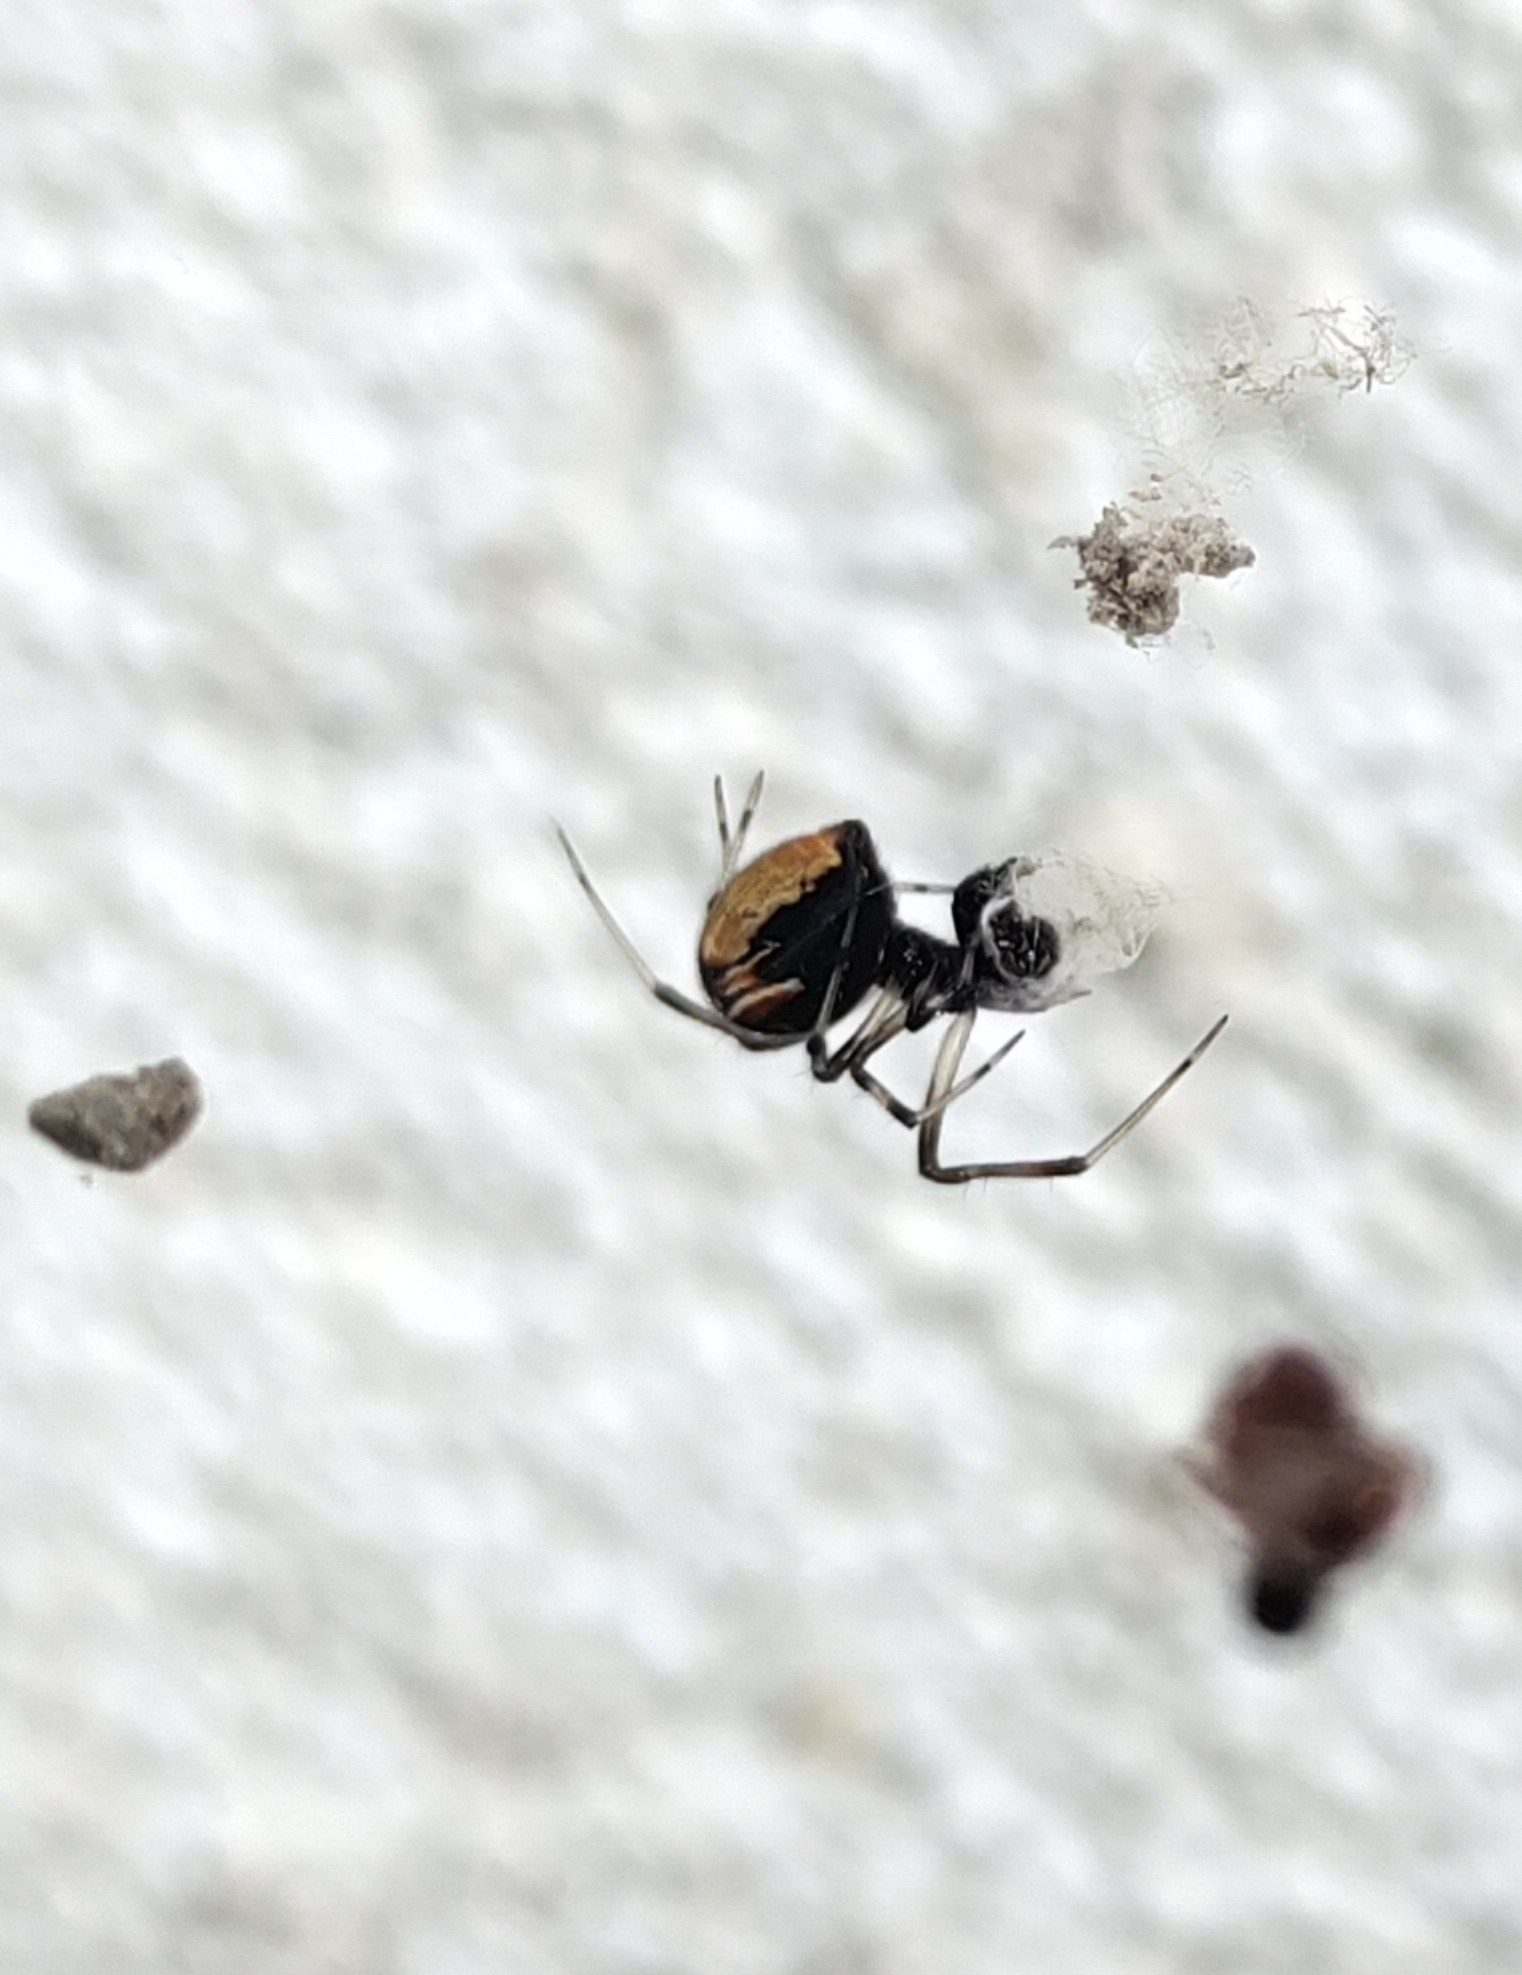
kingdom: Animalia
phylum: Arthropoda
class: Arachnida
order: Araneae
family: Theridiidae
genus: Parasteatoda
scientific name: Parasteatoda lunata
